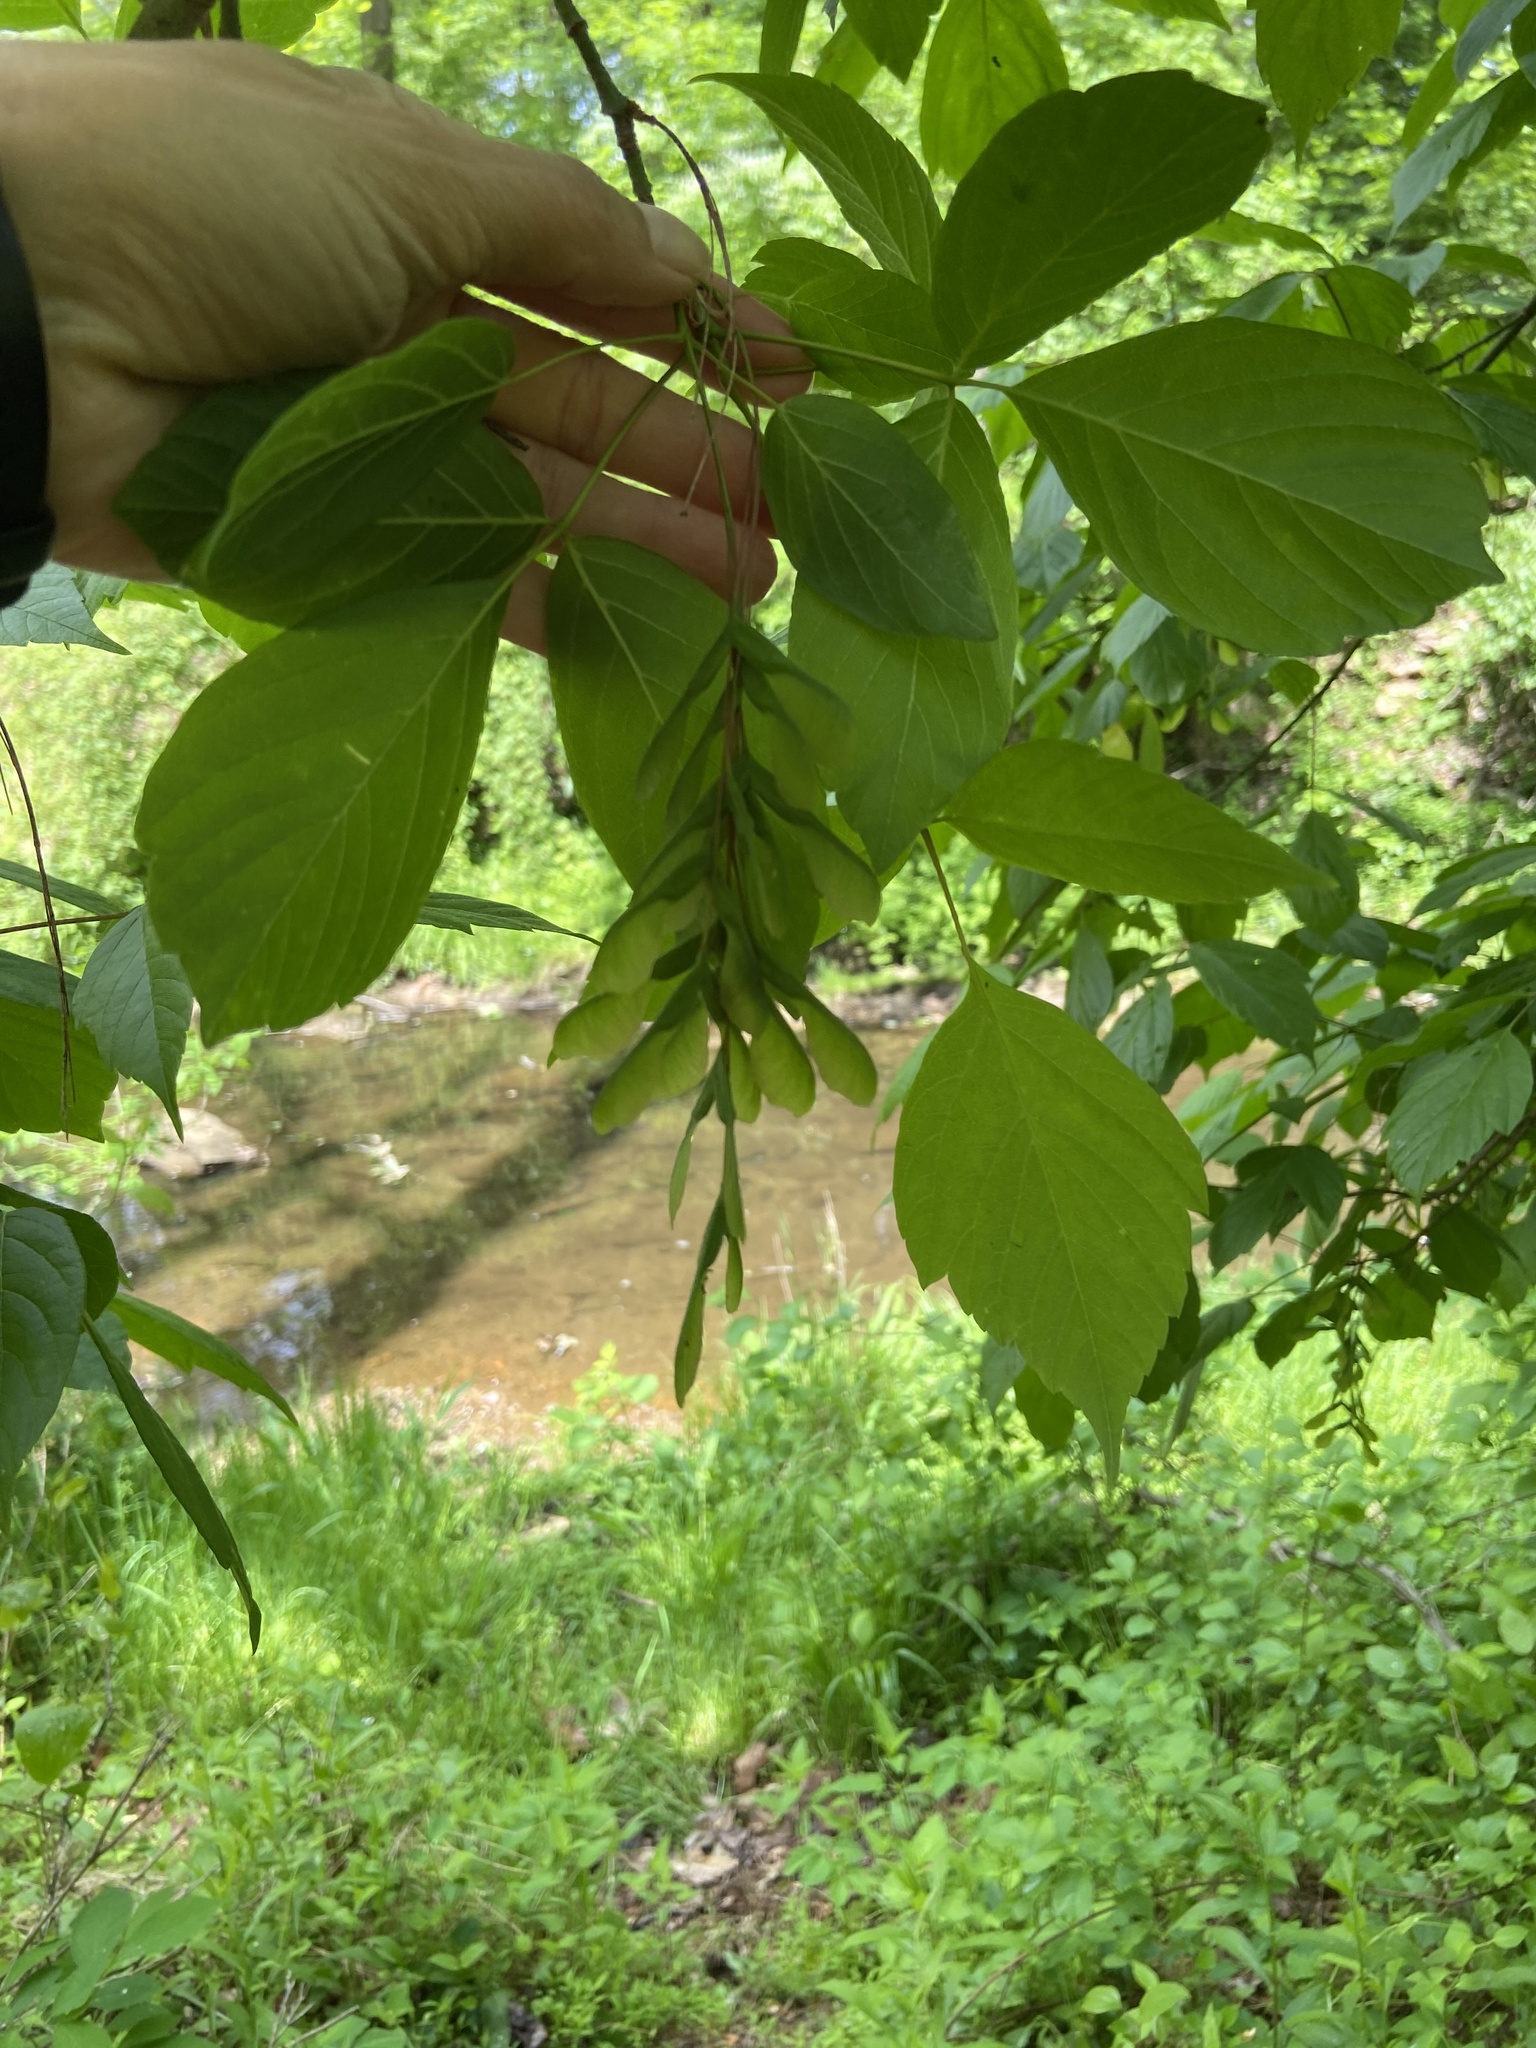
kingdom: Plantae
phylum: Tracheophyta
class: Magnoliopsida
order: Sapindales
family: Sapindaceae
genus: Acer
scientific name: Acer negundo
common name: Ashleaf maple
